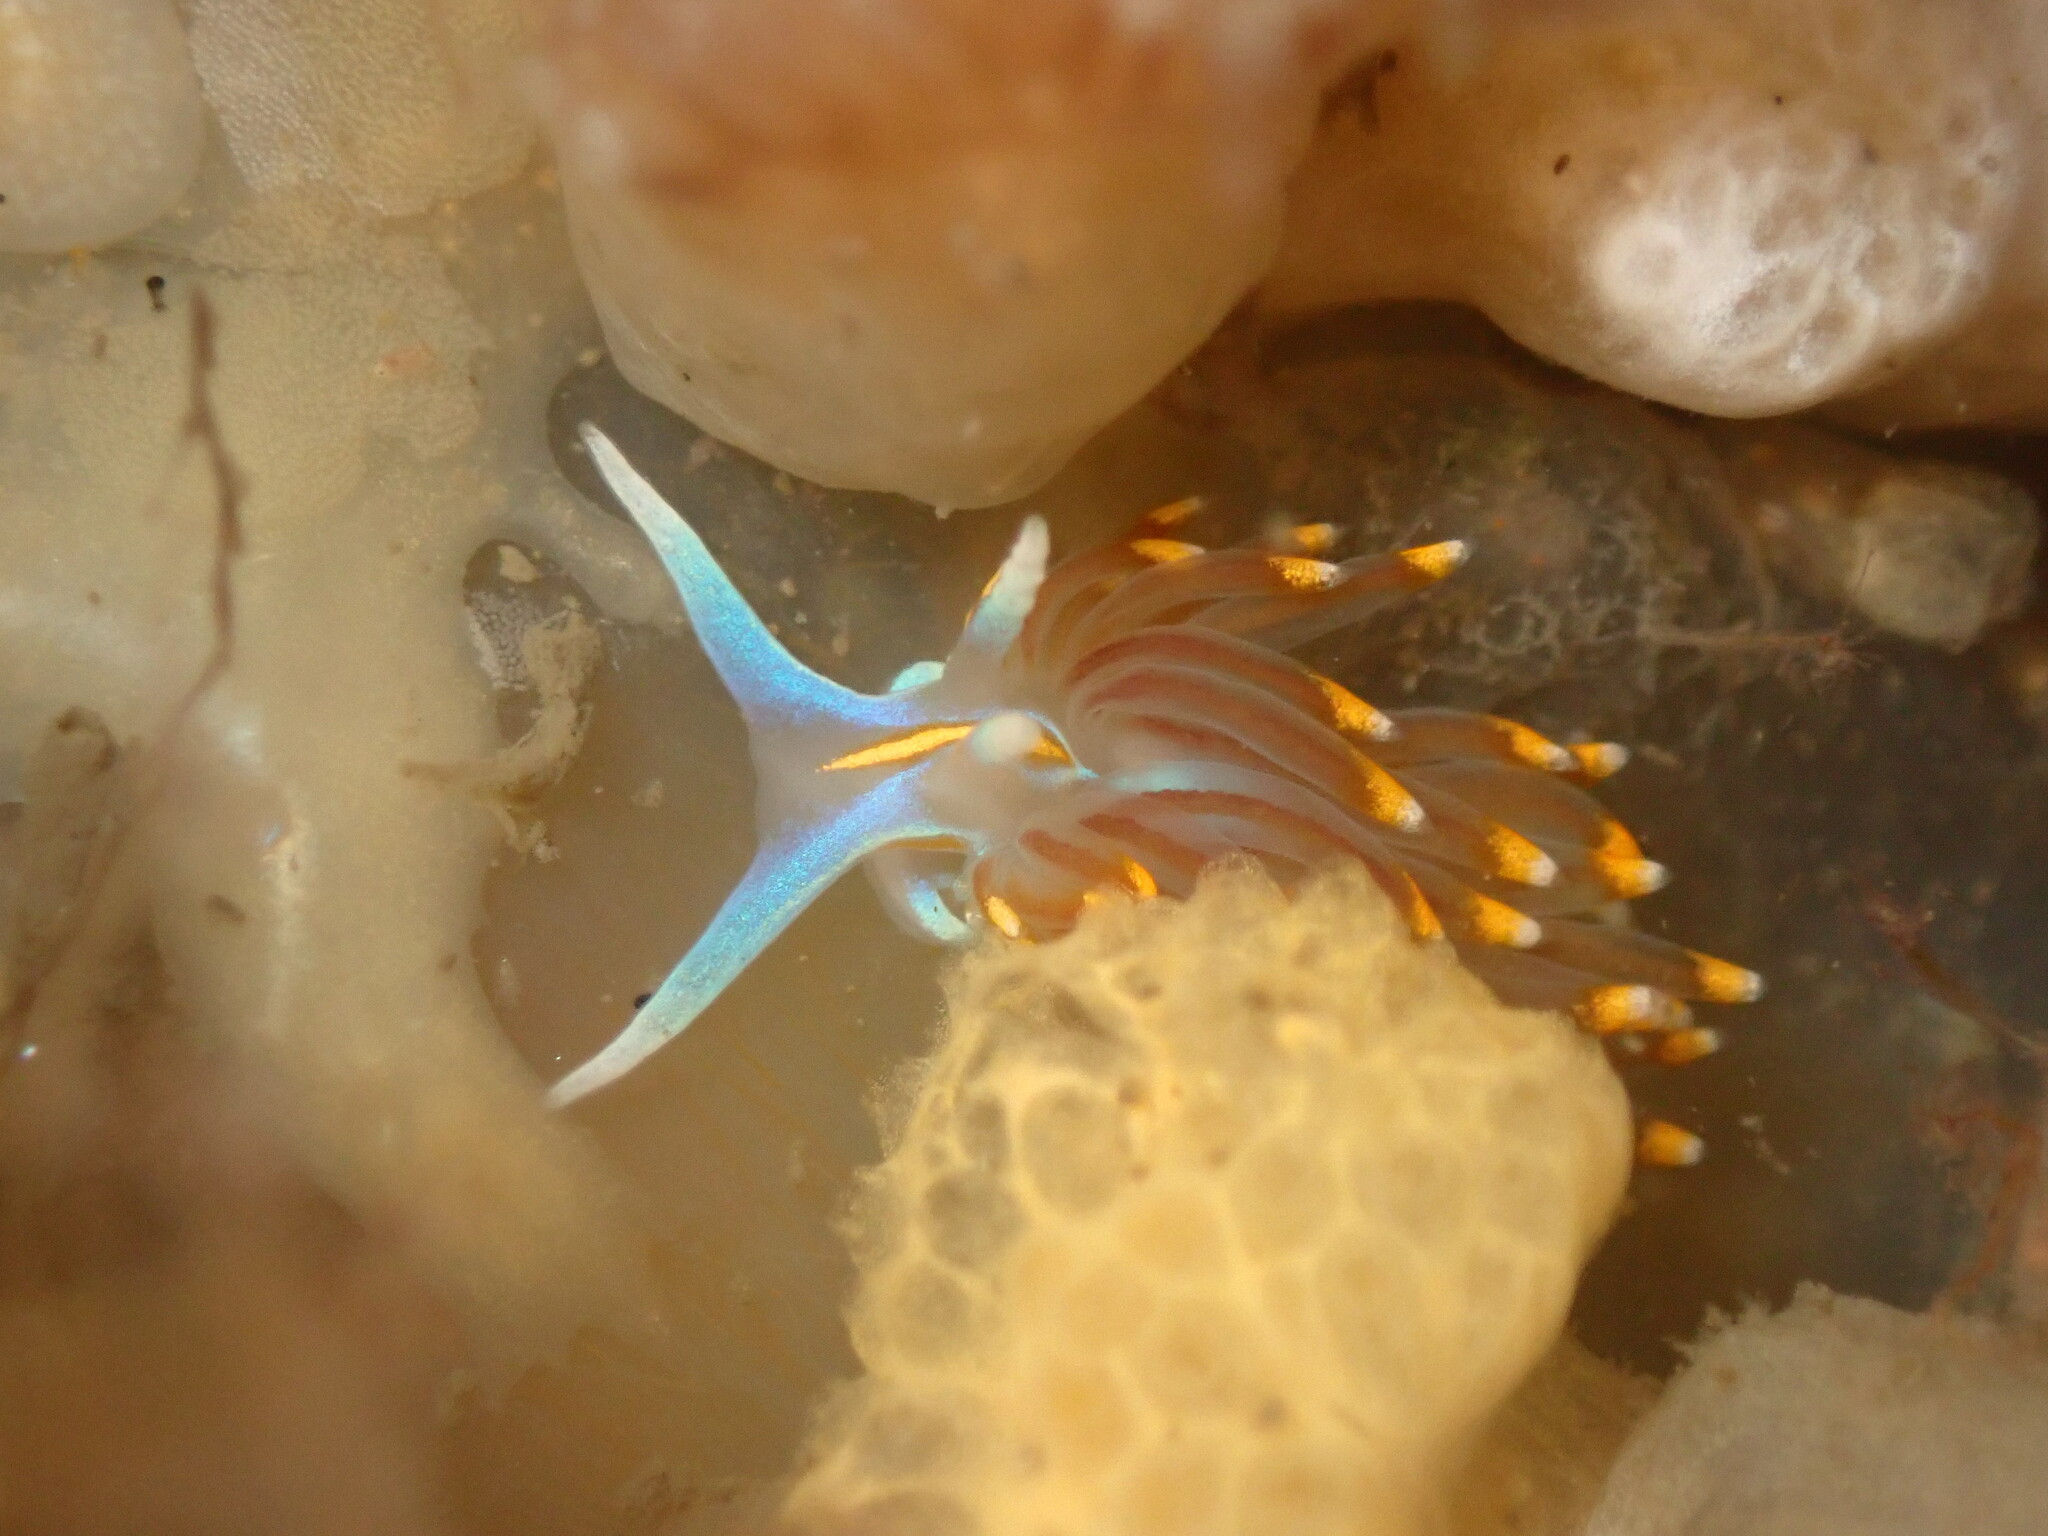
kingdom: Animalia
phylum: Mollusca
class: Gastropoda
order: Nudibranchia
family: Myrrhinidae
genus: Hermissenda
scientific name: Hermissenda opalescens
